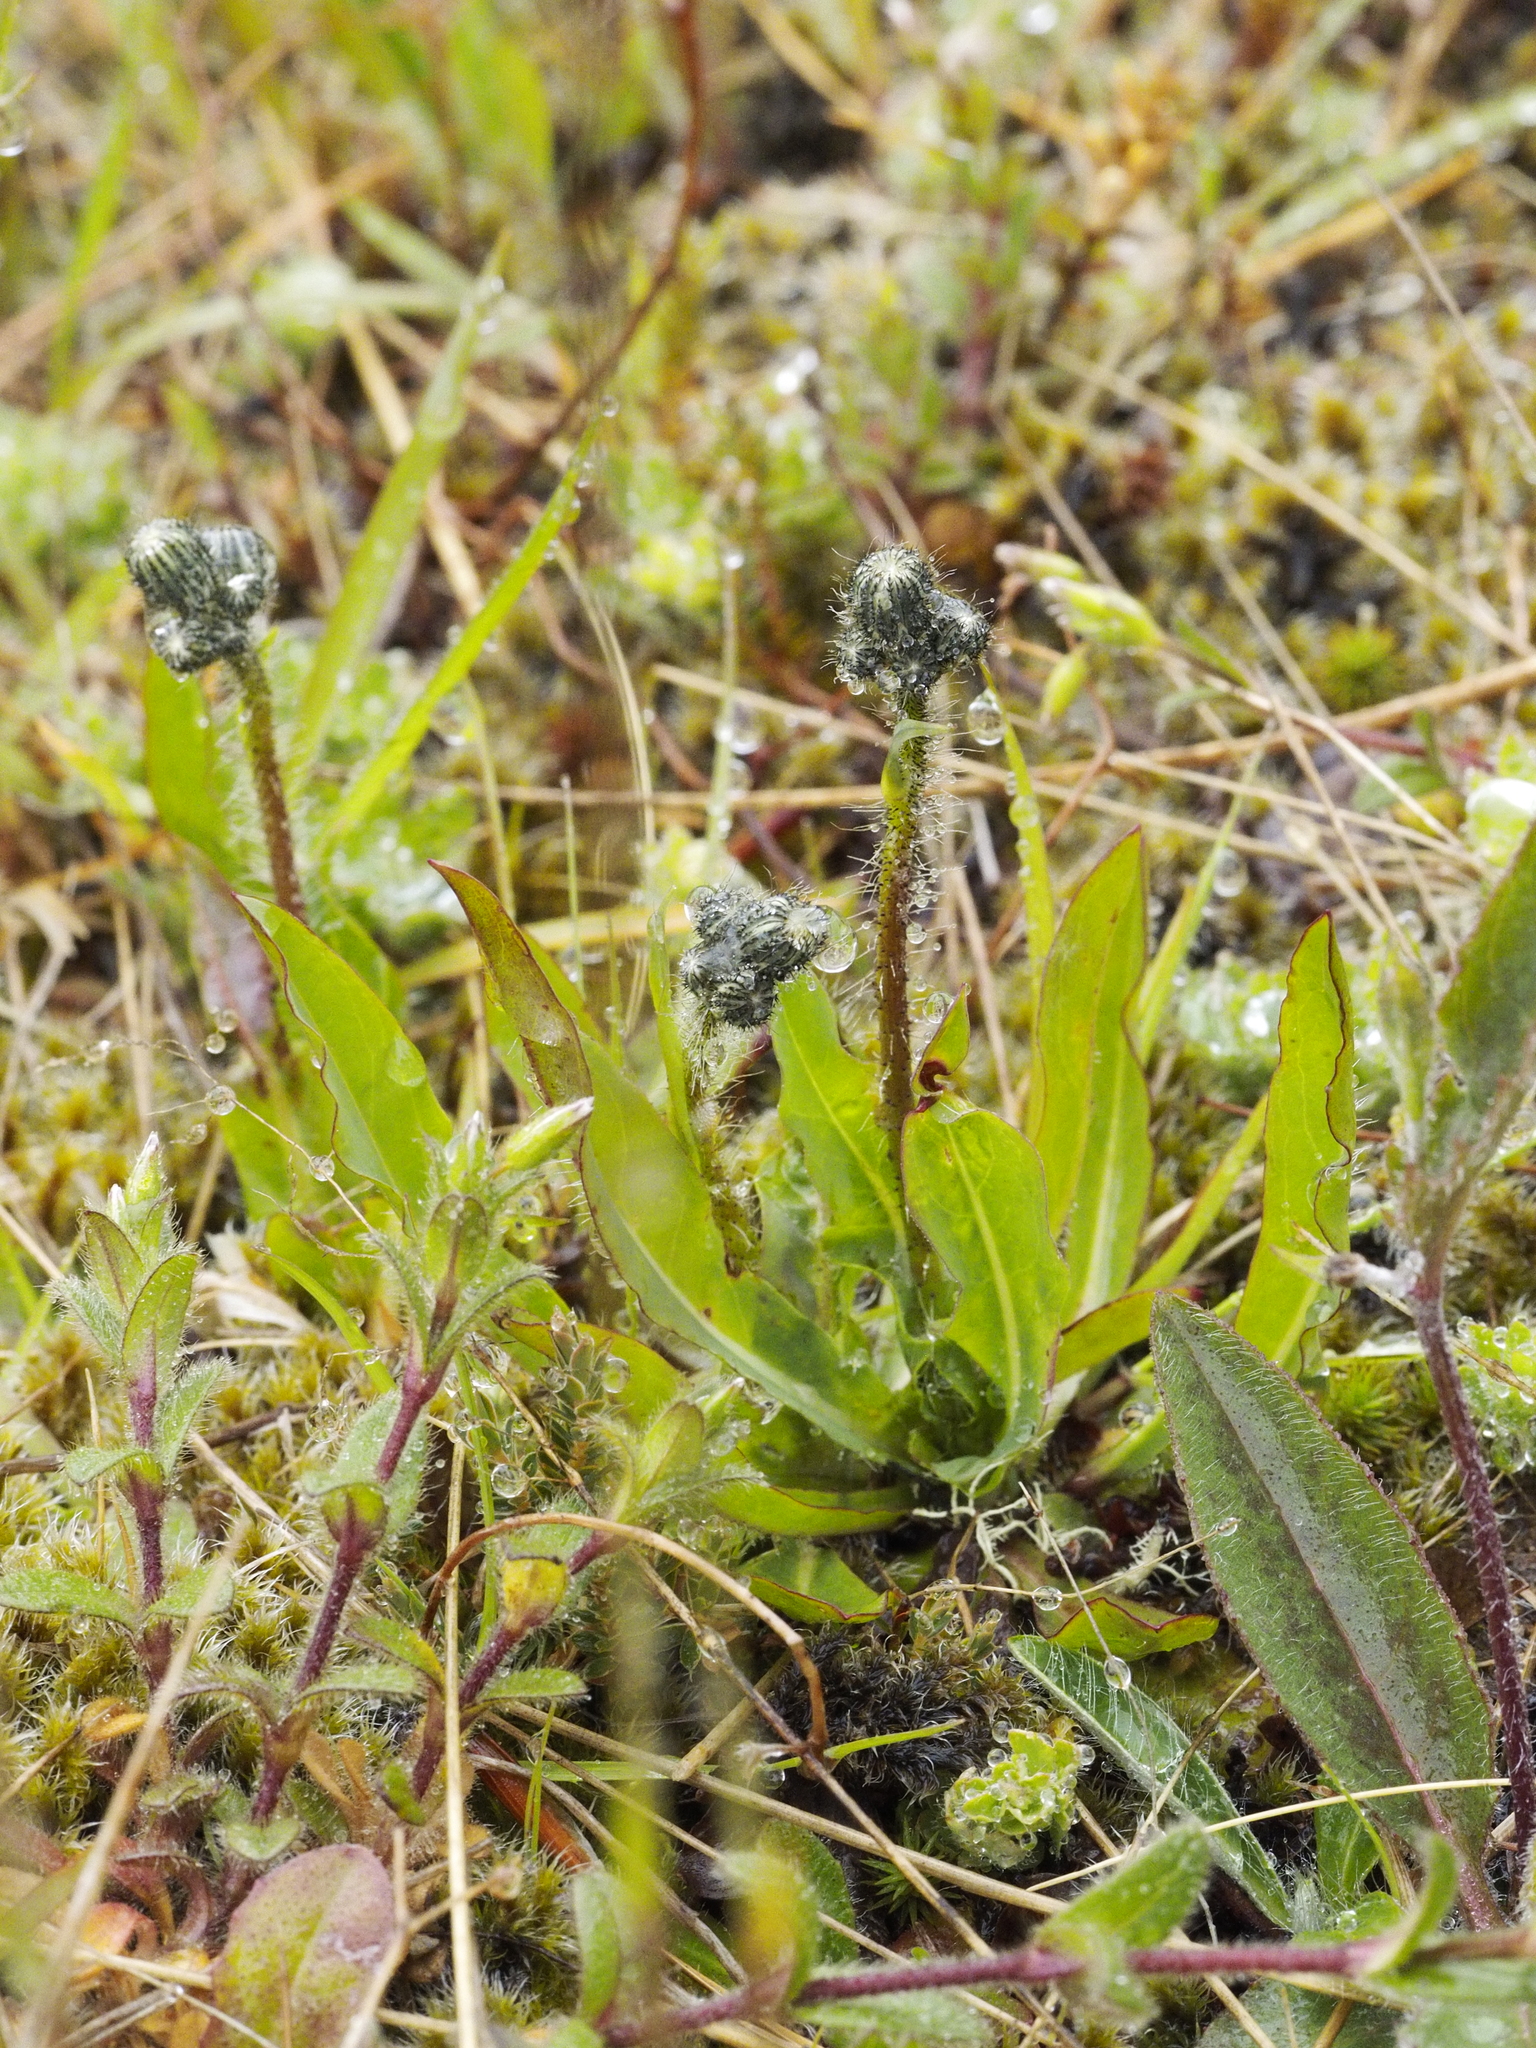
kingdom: Plantae
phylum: Tracheophyta
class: Magnoliopsida
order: Asterales
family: Asteraceae
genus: Pilosella
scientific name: Pilosella piloselloides
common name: Glaucous king-devil
